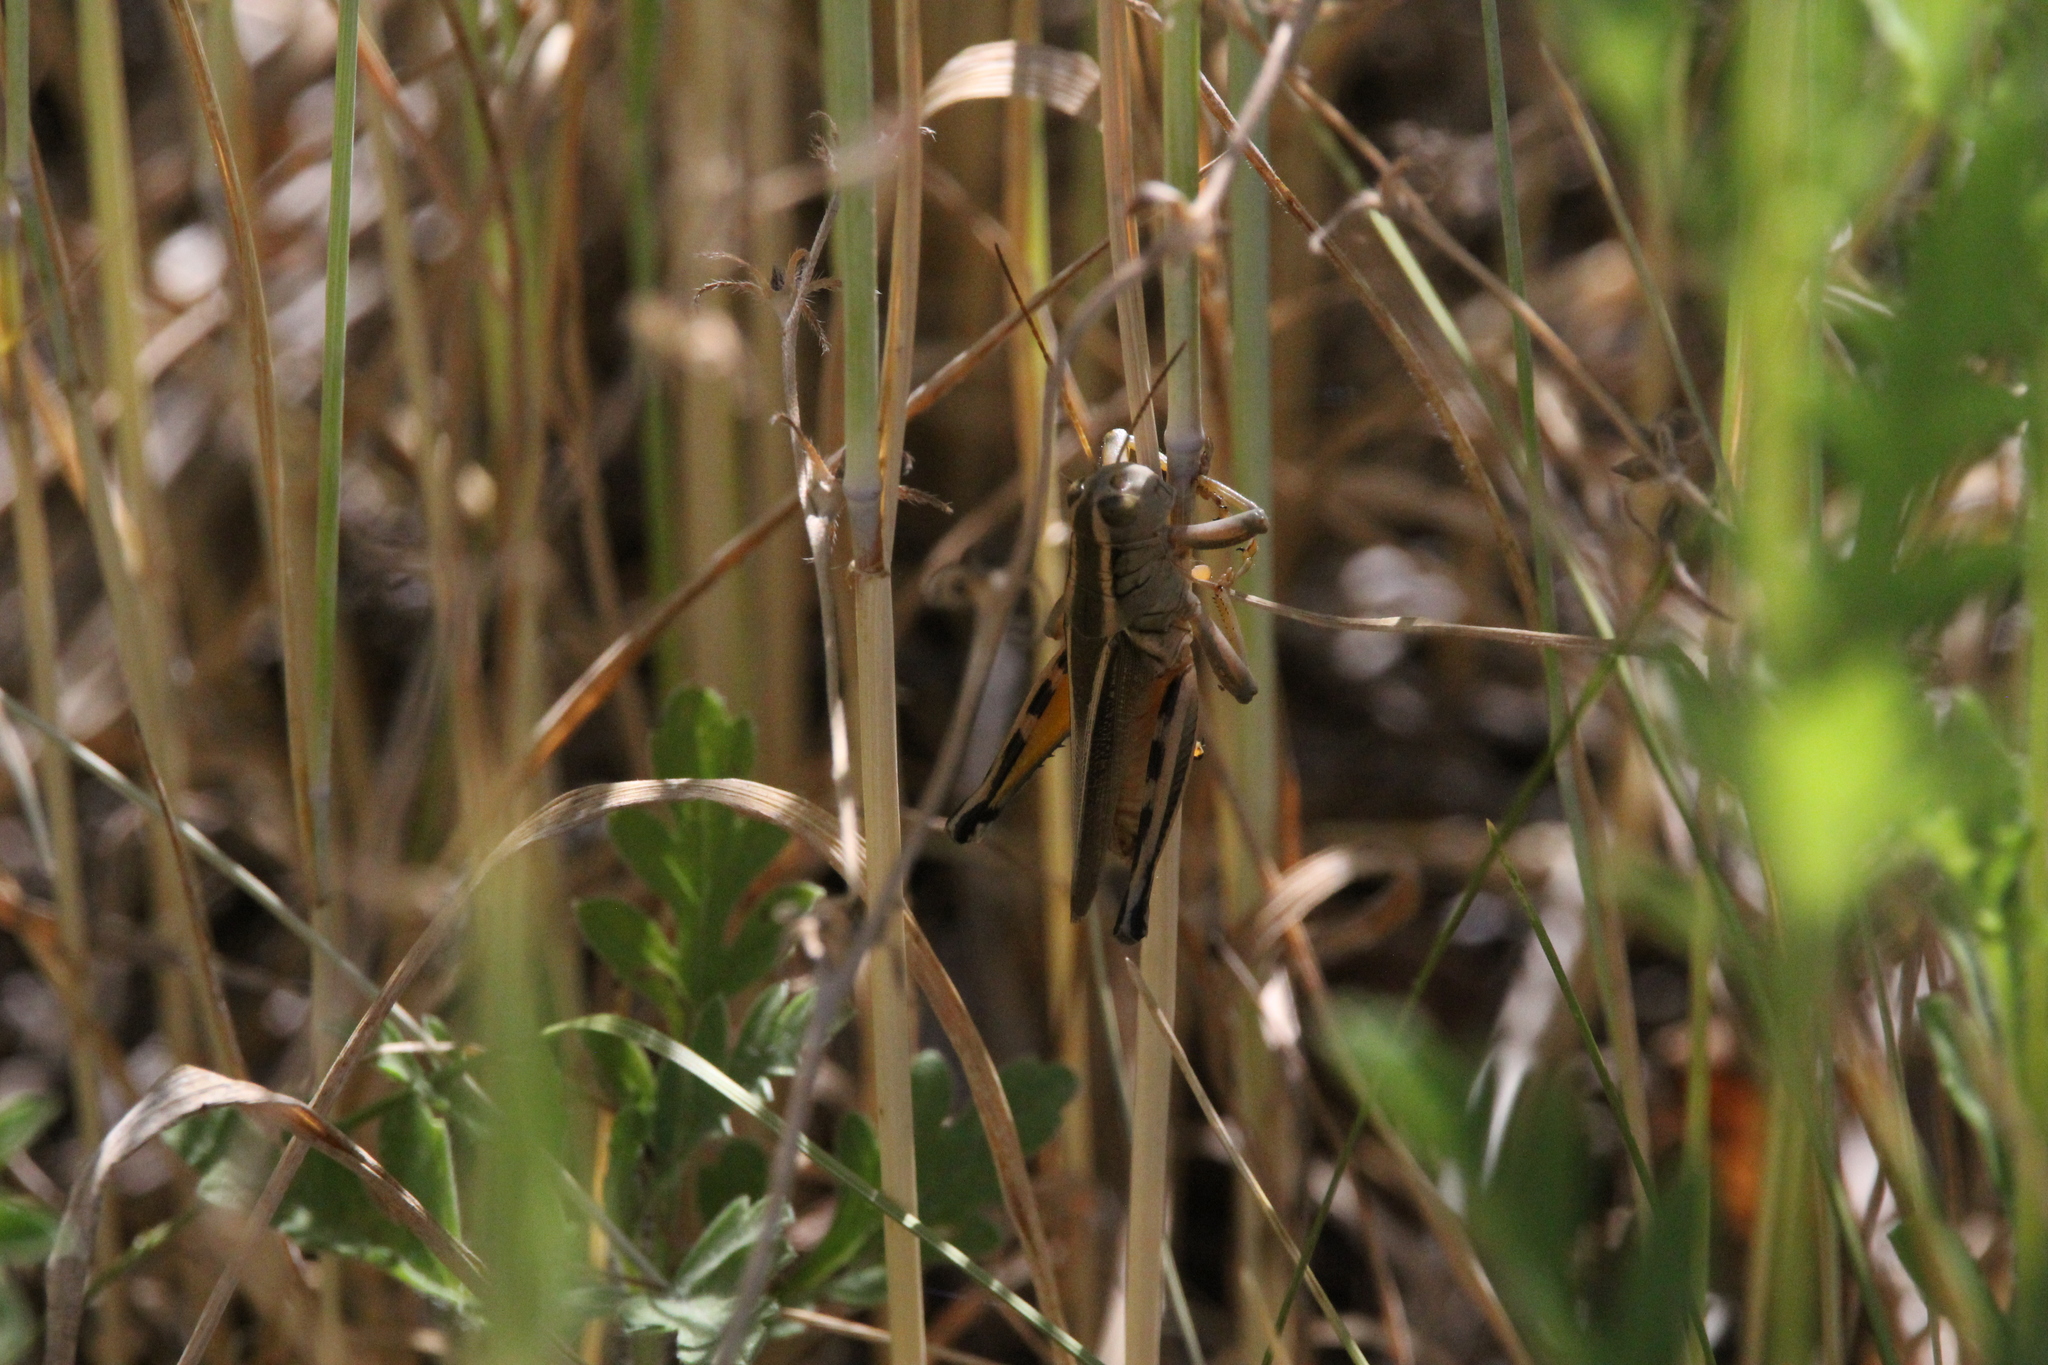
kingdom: Animalia
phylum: Arthropoda
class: Insecta
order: Orthoptera
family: Acrididae
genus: Melanoplus
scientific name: Melanoplus bivittatus
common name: Two-striped grasshopper
